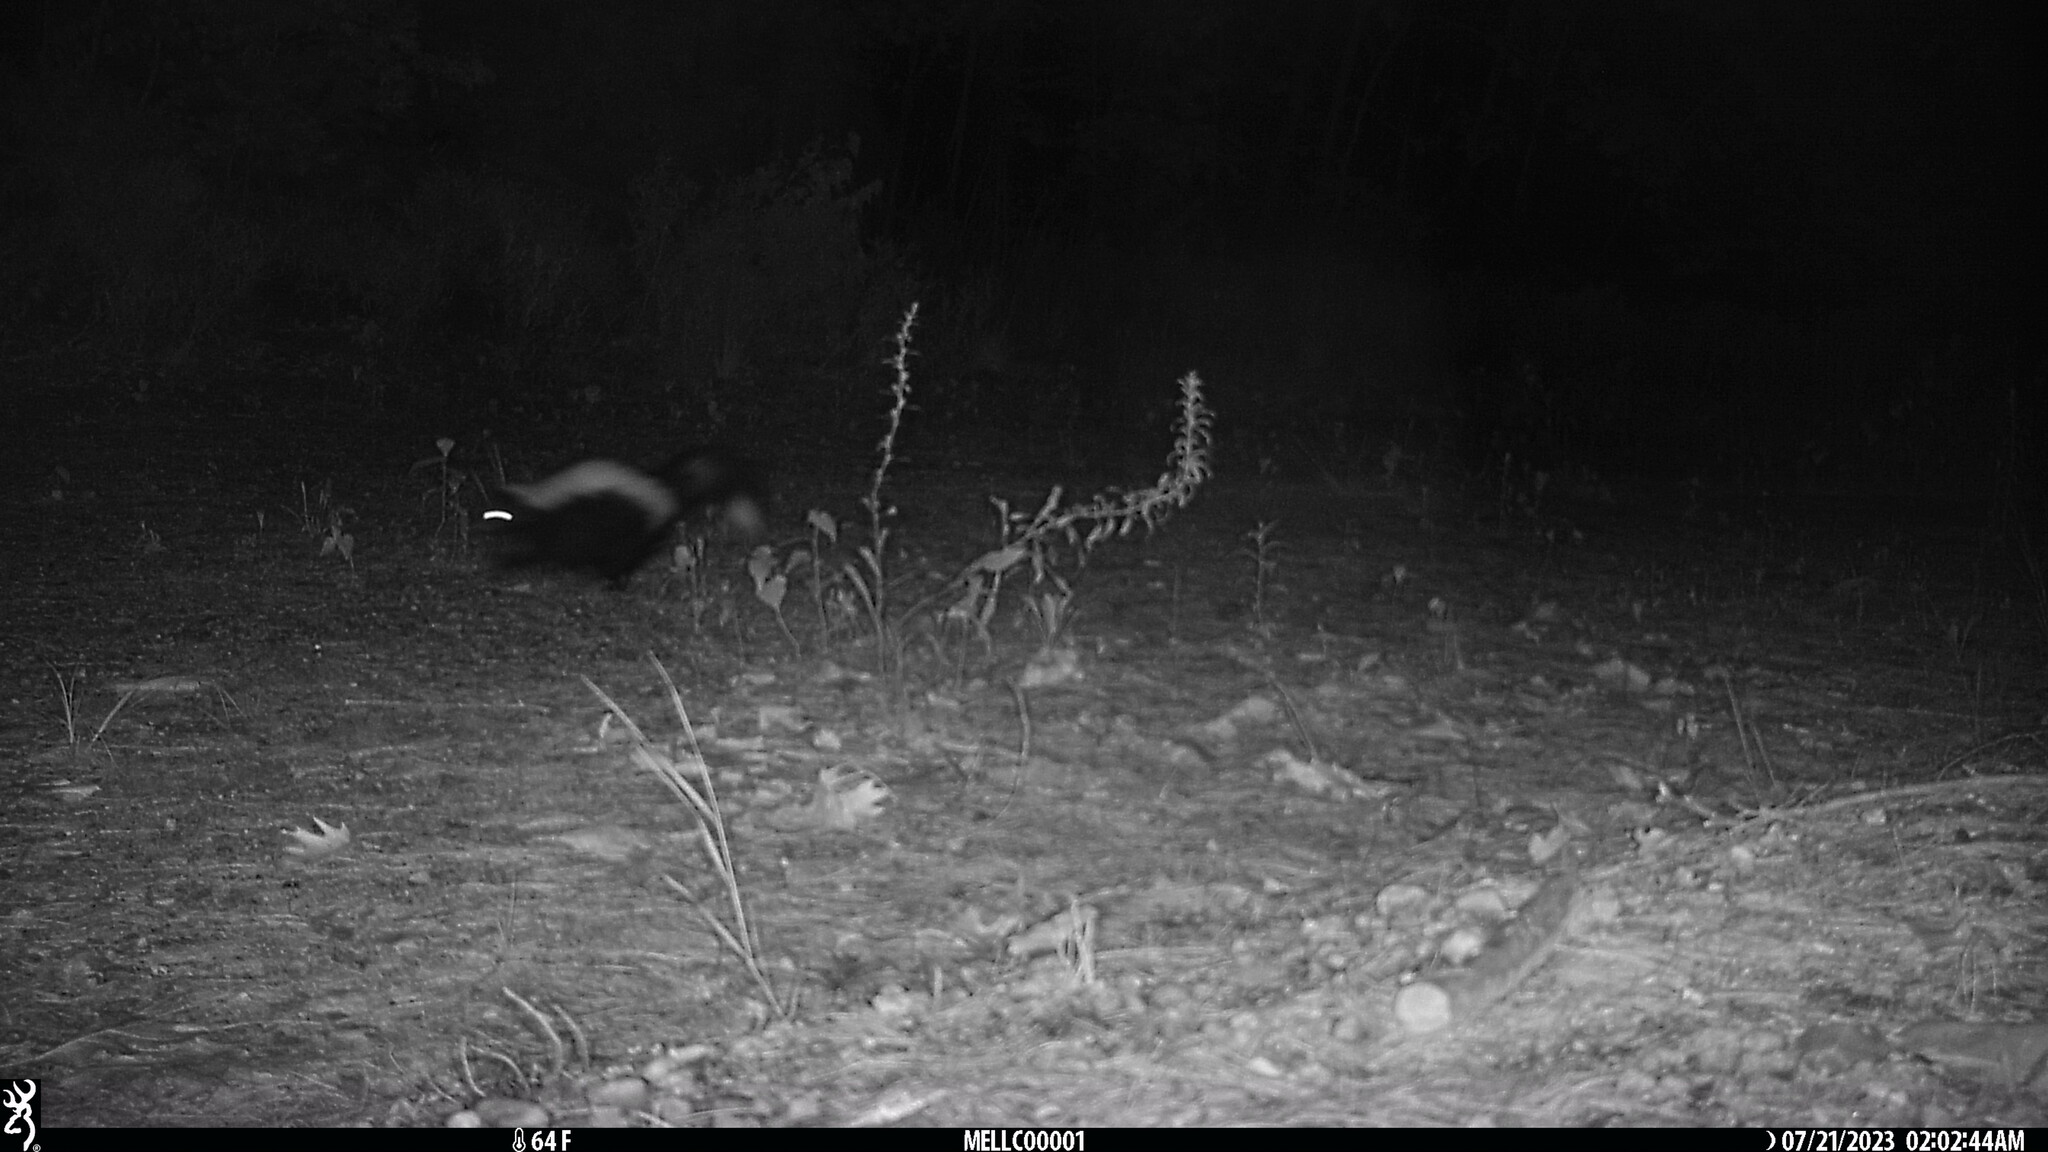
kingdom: Animalia
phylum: Chordata
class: Mammalia
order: Carnivora
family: Mephitidae
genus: Mephitis
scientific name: Mephitis mephitis
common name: Striped skunk
